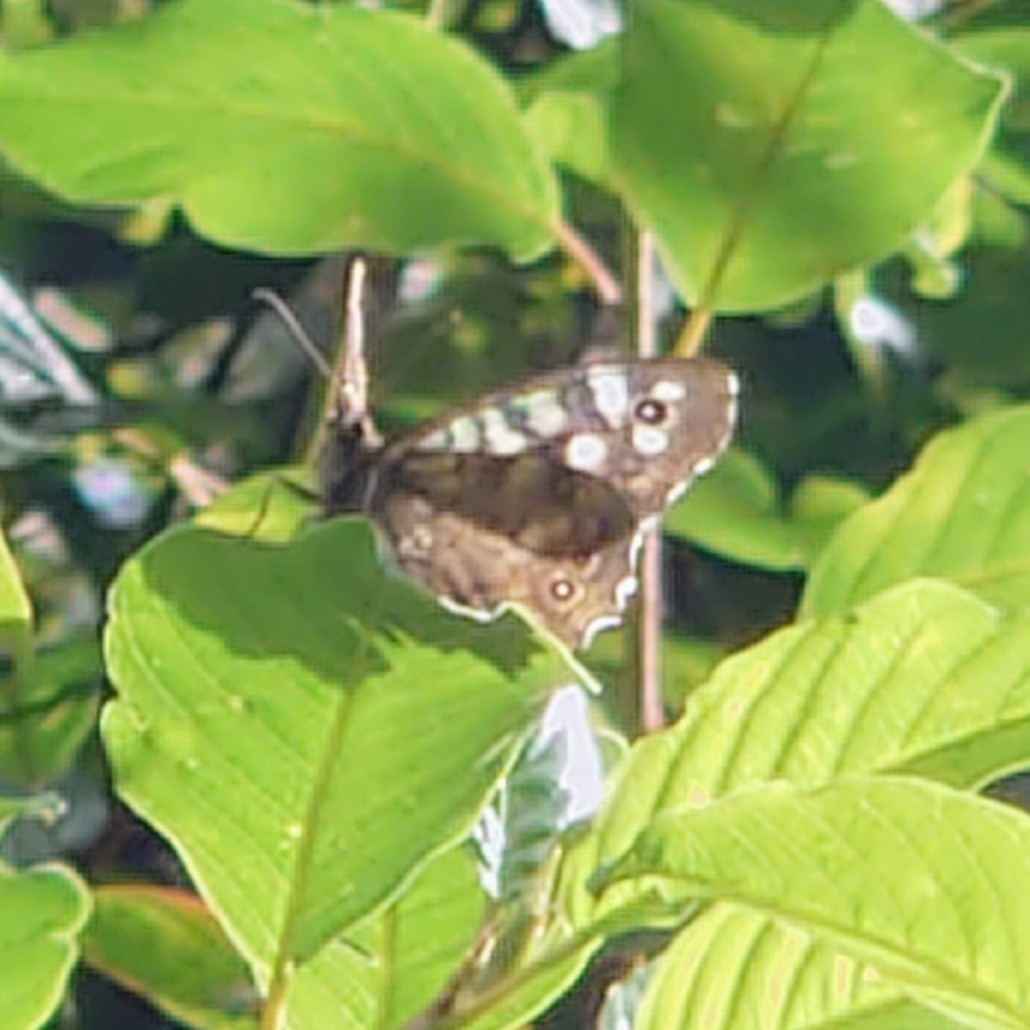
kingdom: Animalia
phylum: Arthropoda
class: Insecta
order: Lepidoptera
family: Nymphalidae
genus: Pararge
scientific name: Pararge aegeria
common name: Speckled wood
